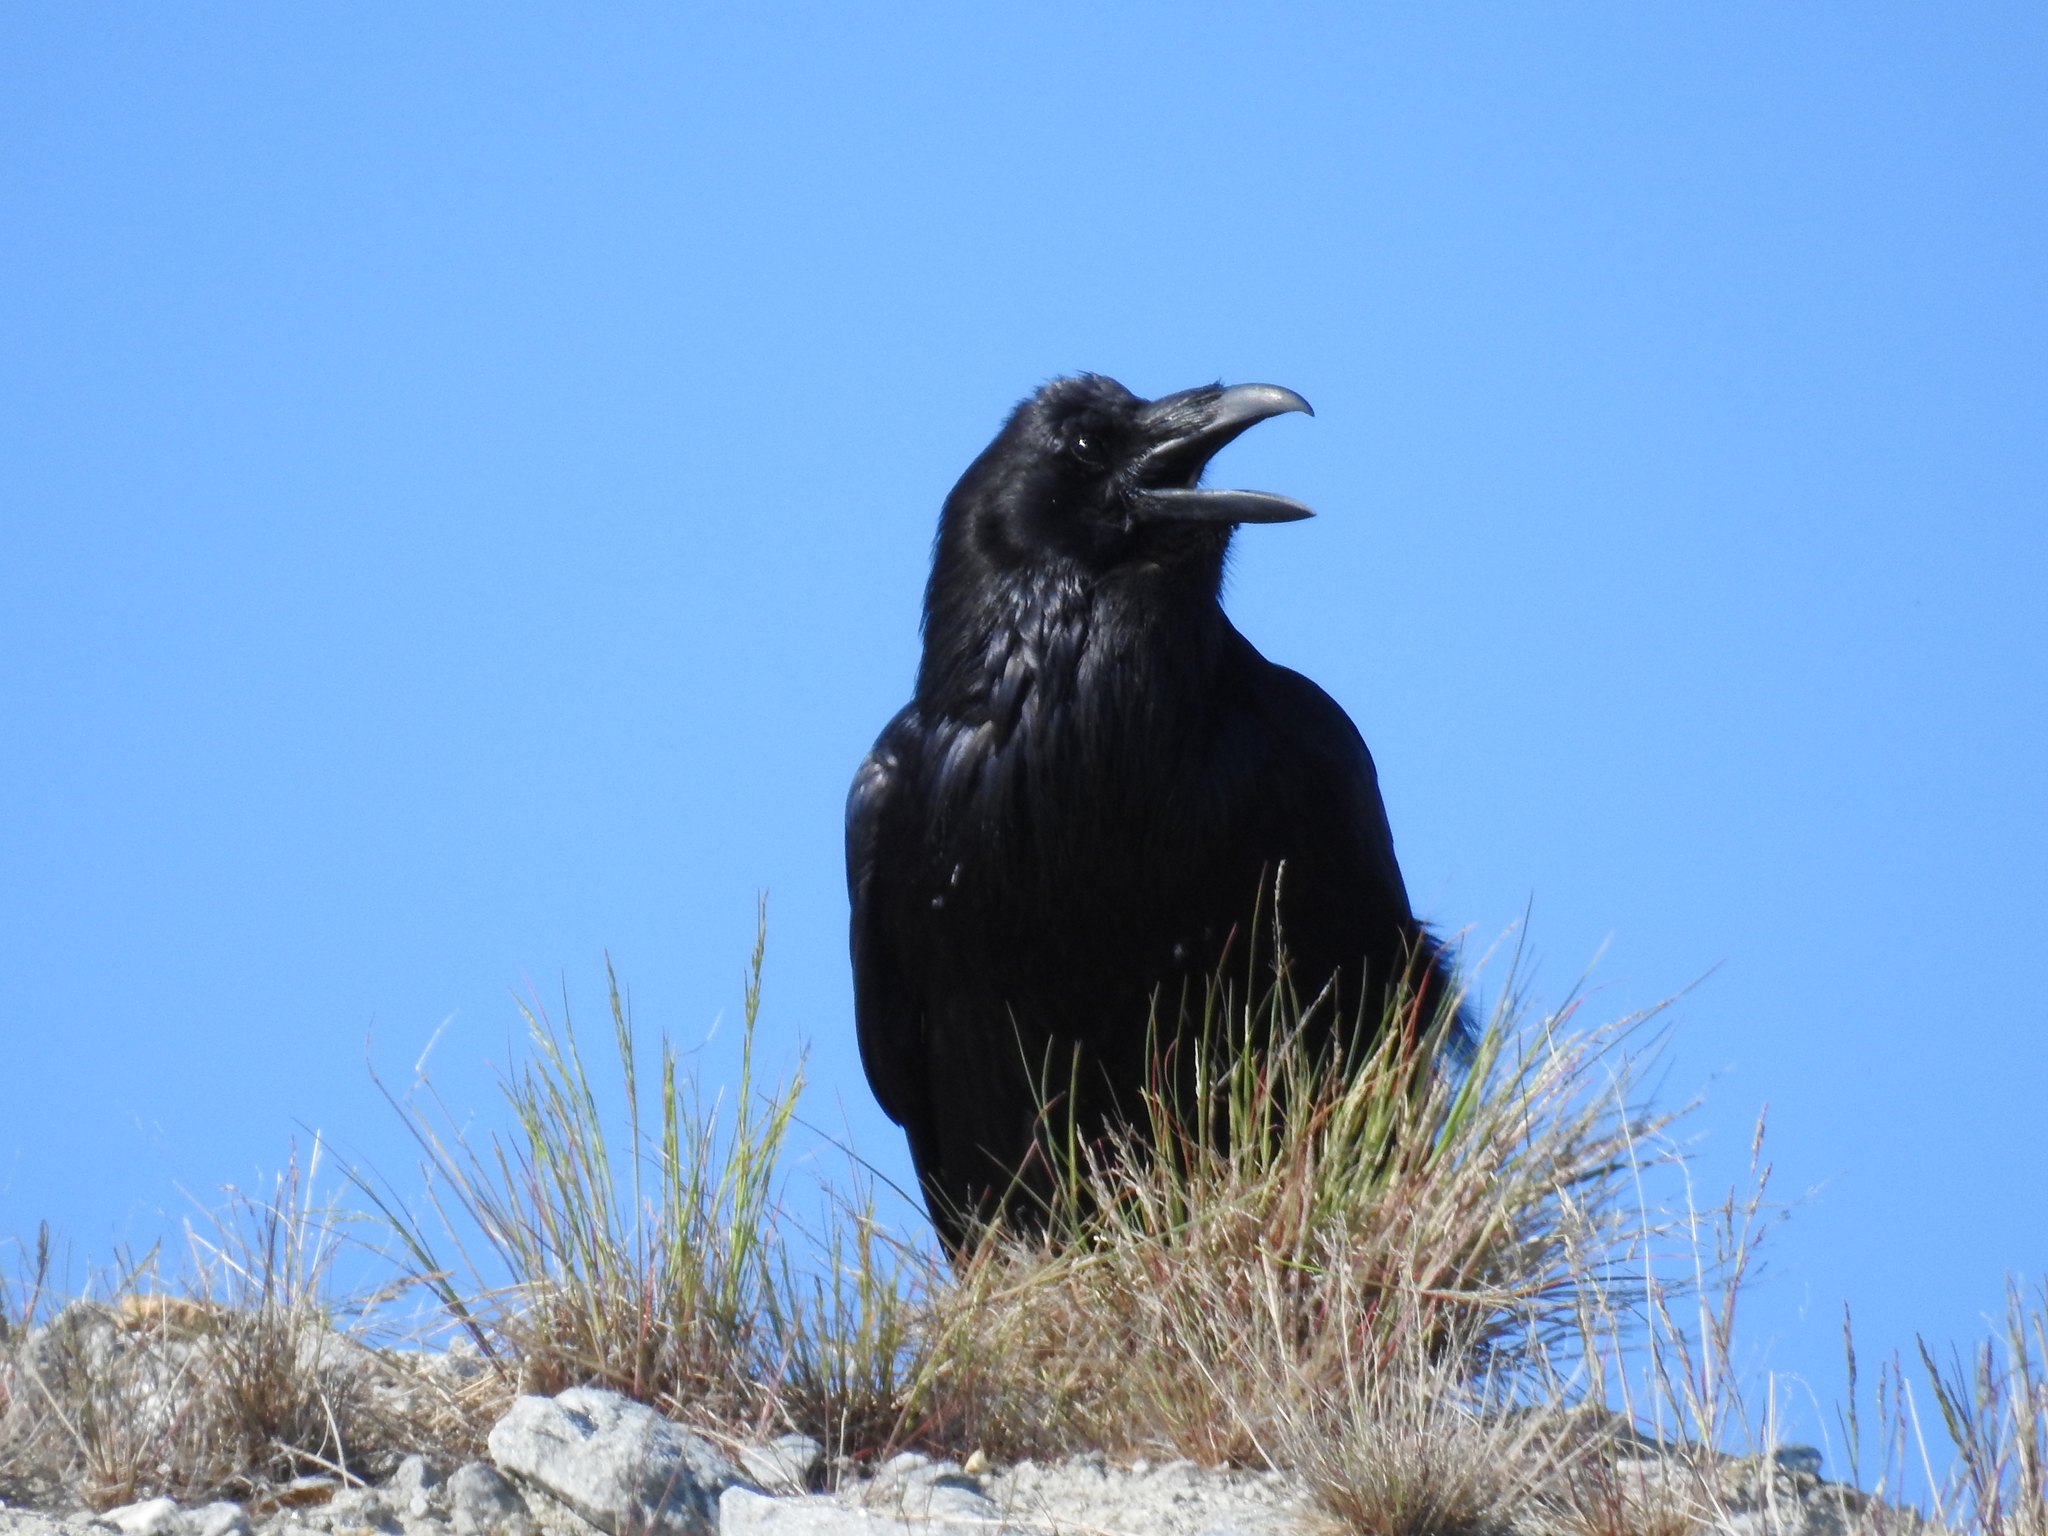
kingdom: Animalia
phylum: Chordata
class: Aves
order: Passeriformes
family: Corvidae
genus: Corvus
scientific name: Corvus corax
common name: Common raven
